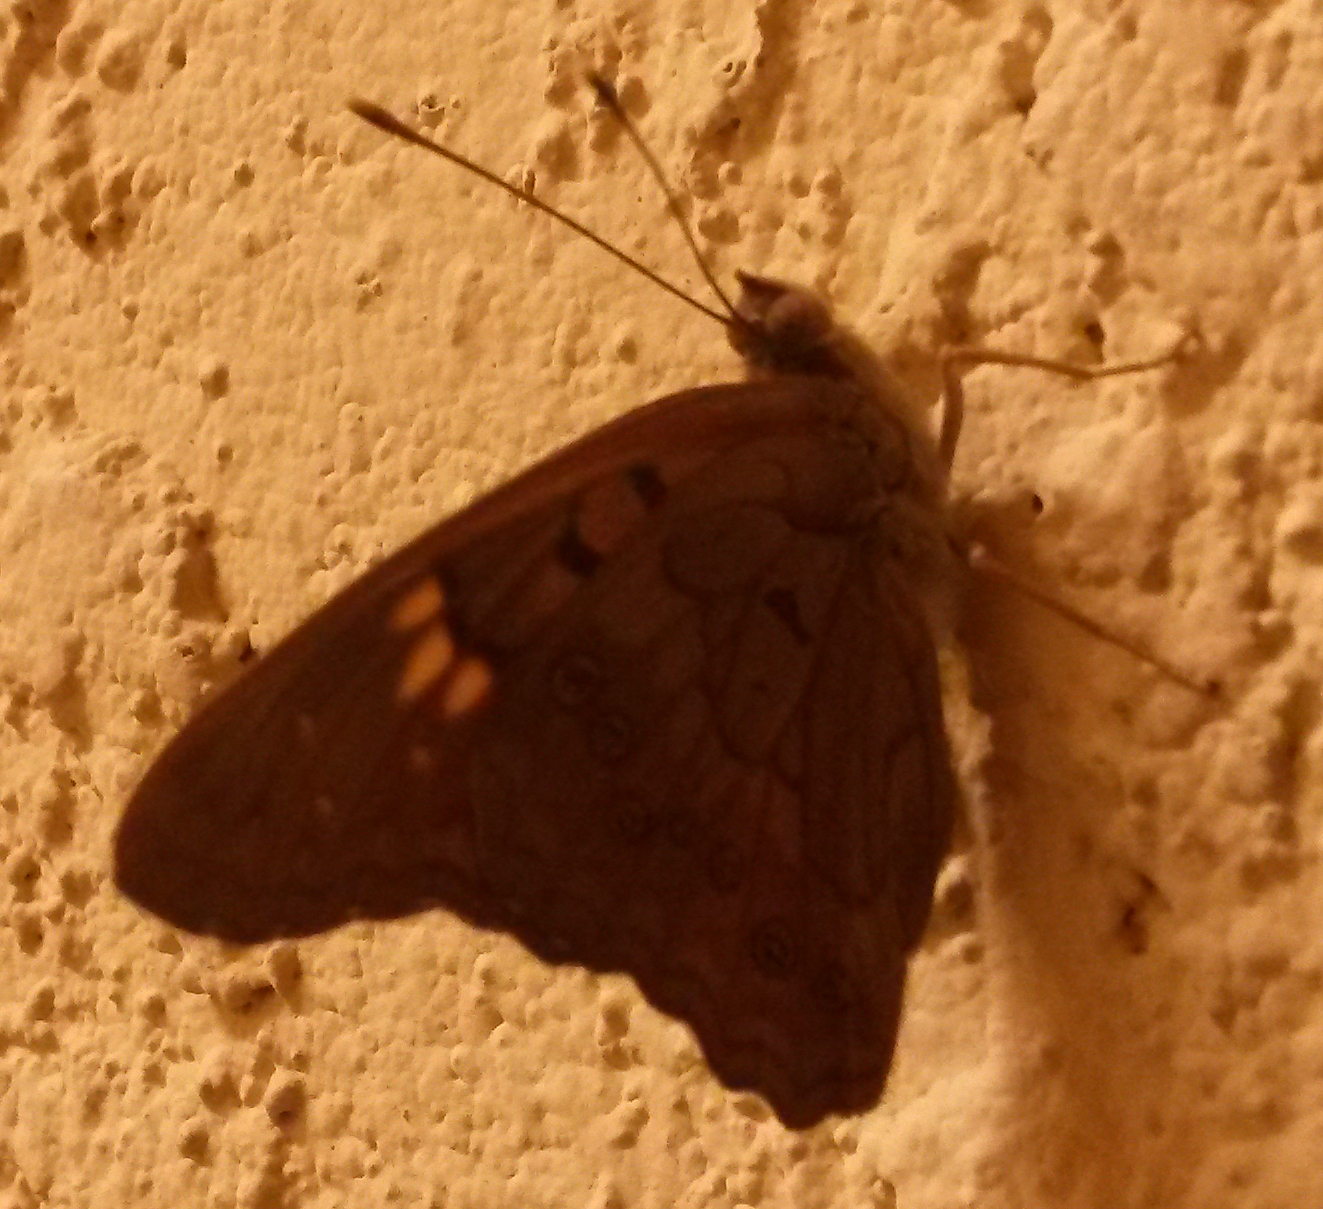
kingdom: Animalia
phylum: Arthropoda
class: Insecta
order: Lepidoptera
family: Nymphalidae
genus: Asterocampa
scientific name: Asterocampa clyton
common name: Tawny emperor
